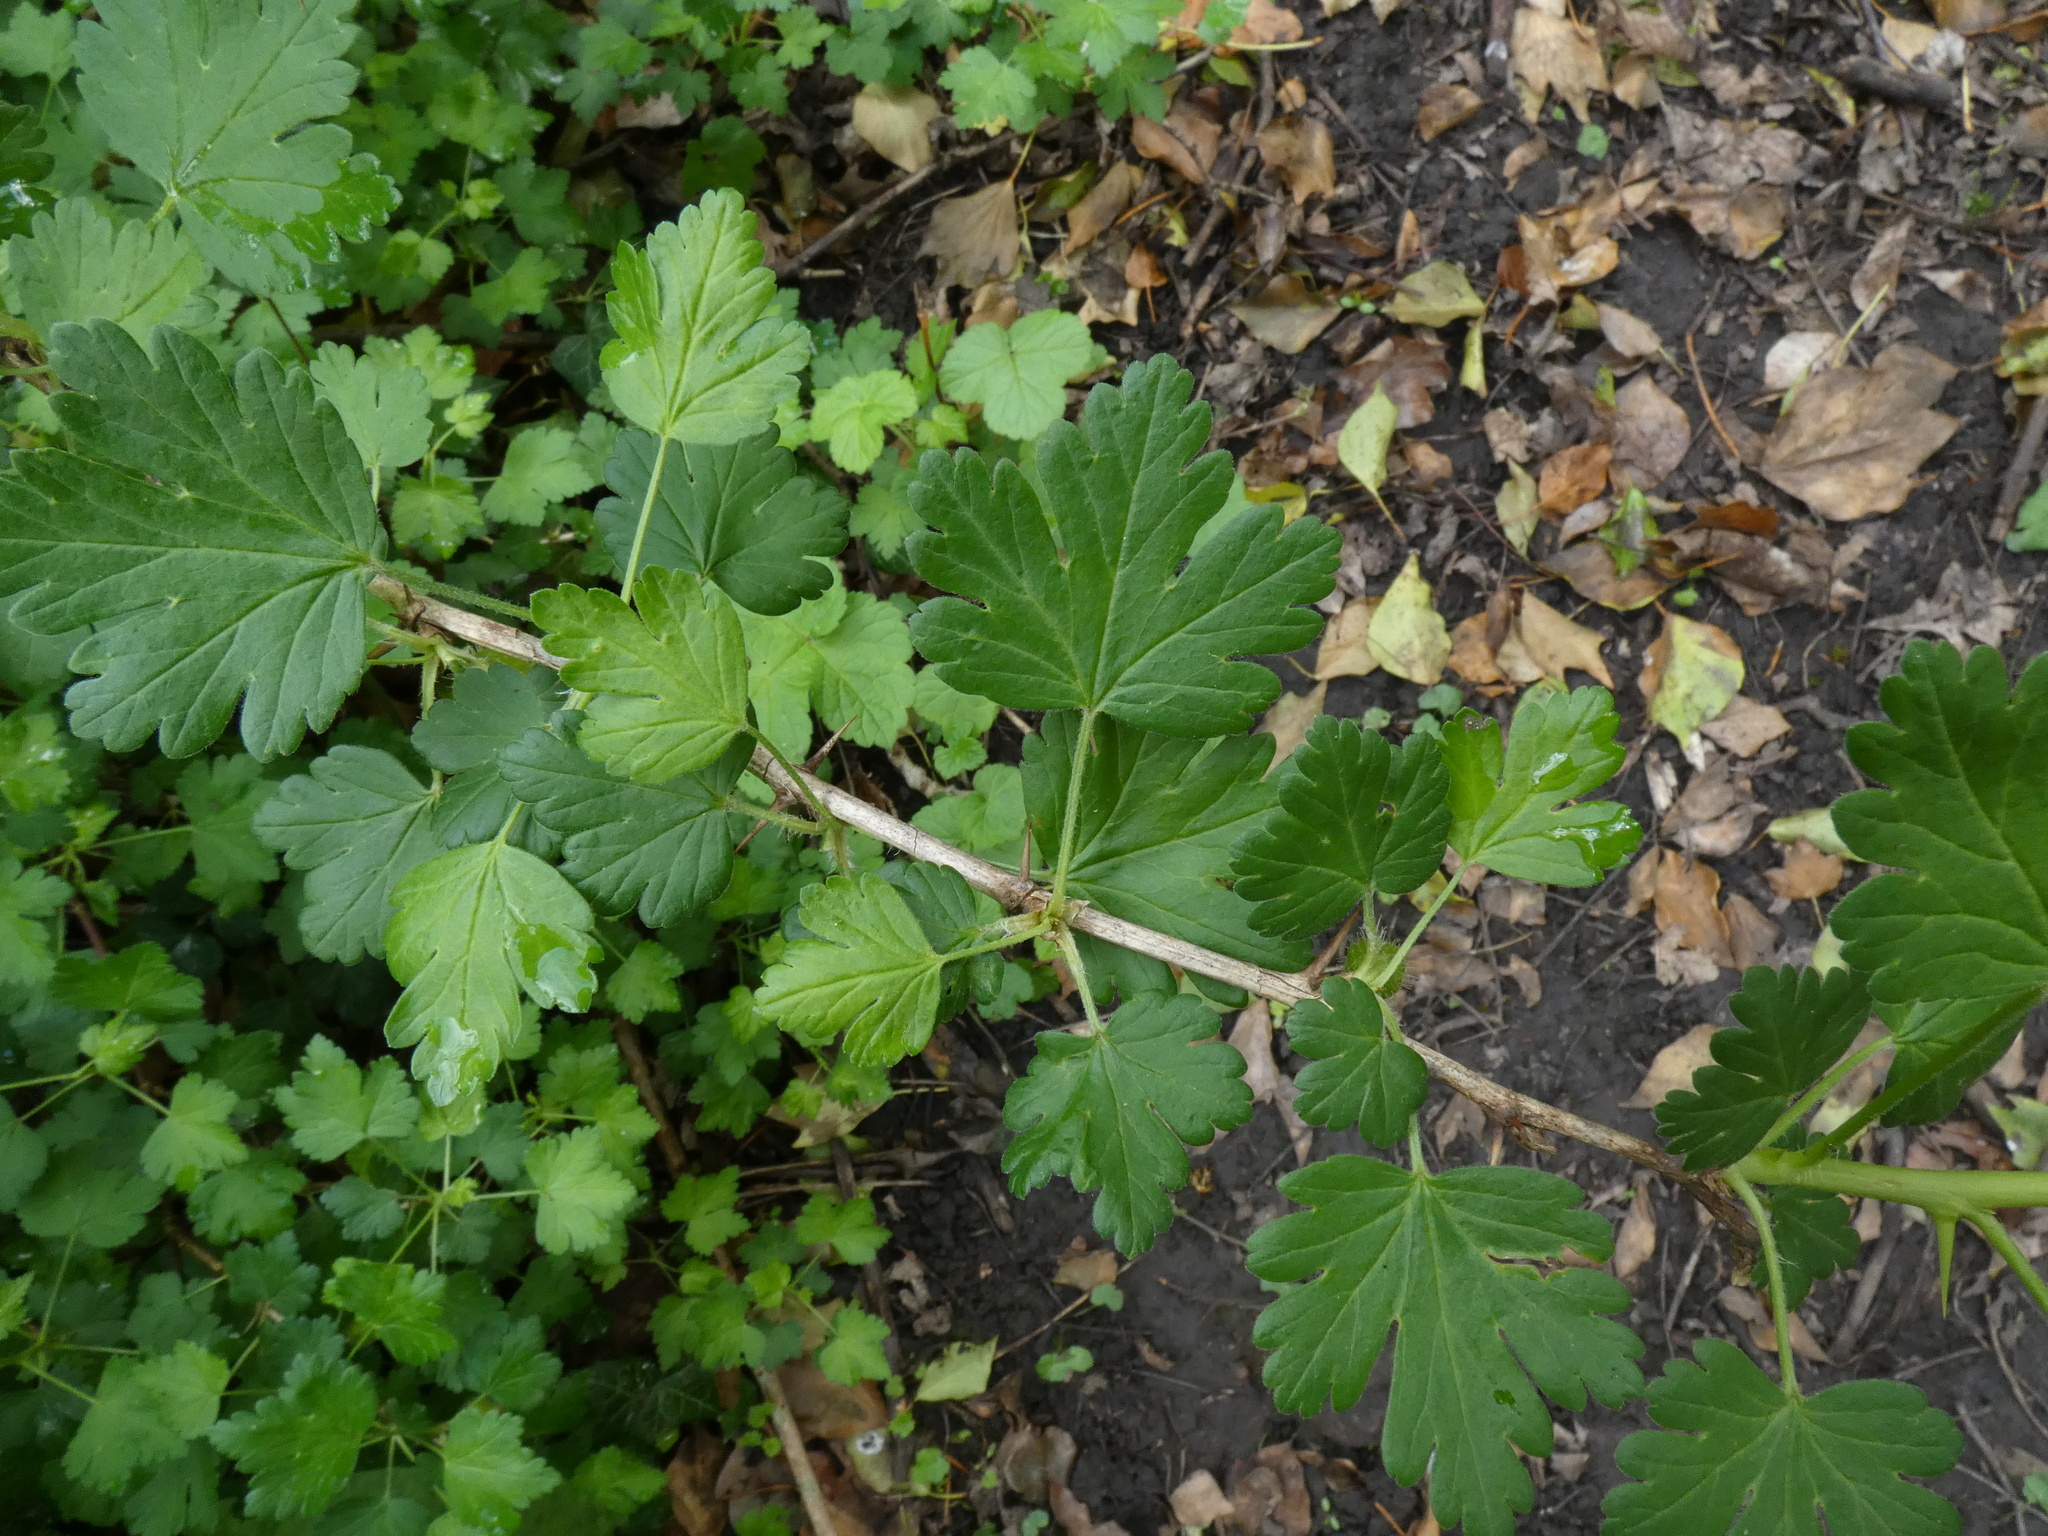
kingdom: Plantae
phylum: Tracheophyta
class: Magnoliopsida
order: Saxifragales
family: Grossulariaceae
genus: Ribes
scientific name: Ribes uva-crispa
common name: Gooseberry
